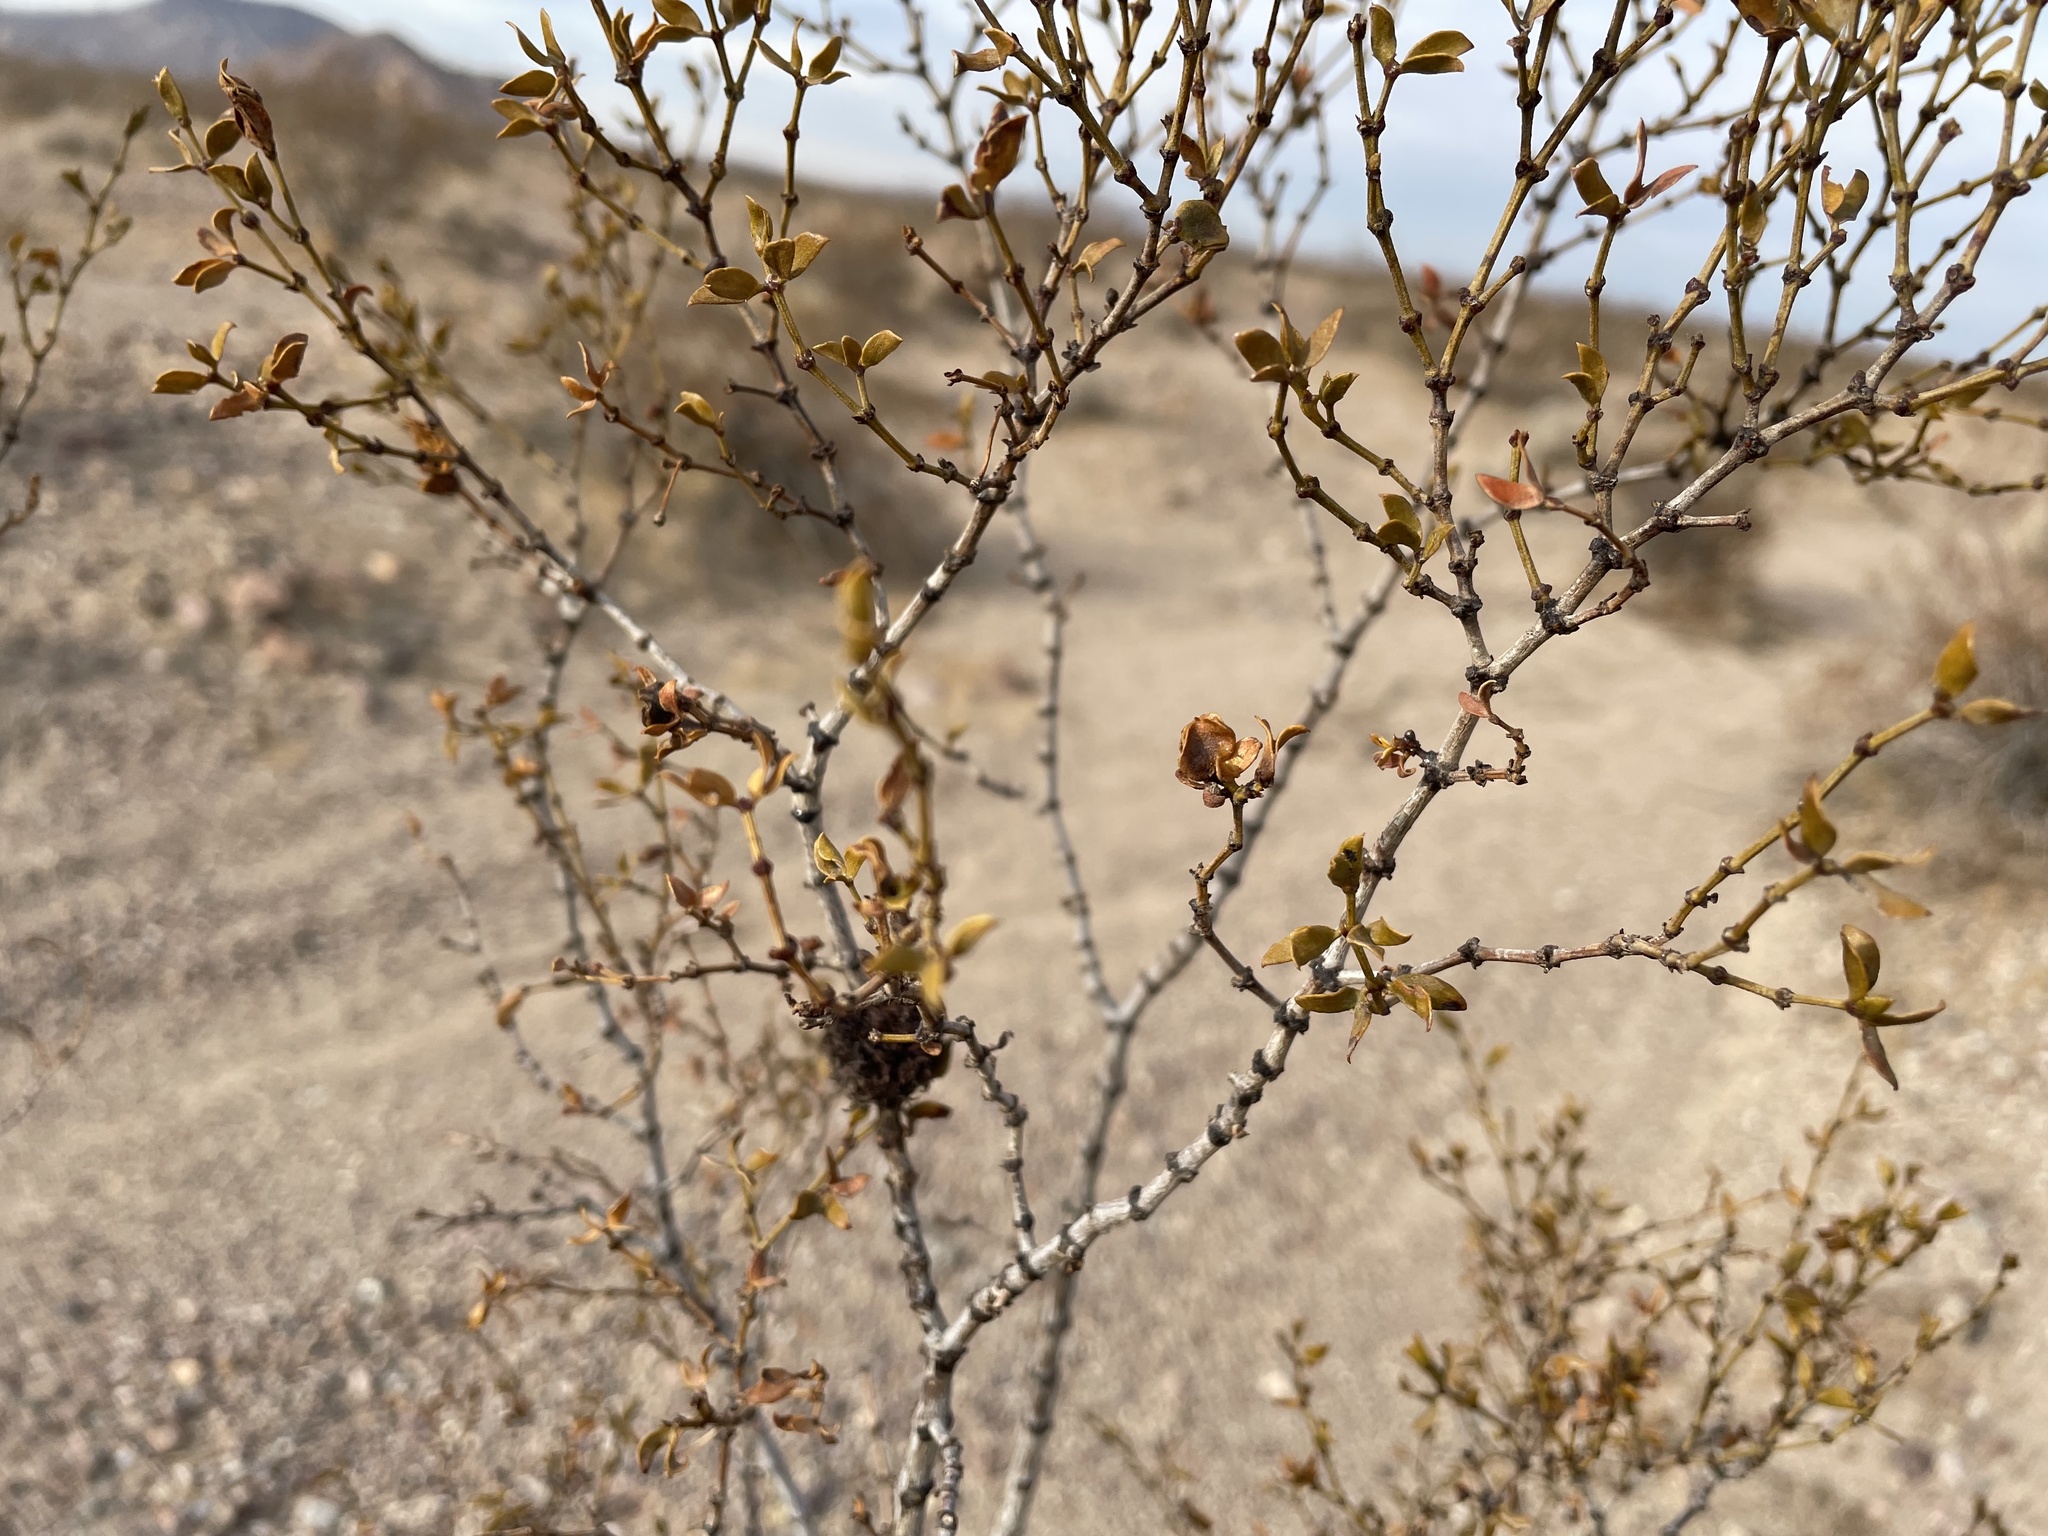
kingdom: Plantae
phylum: Tracheophyta
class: Magnoliopsida
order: Zygophyllales
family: Zygophyllaceae
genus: Larrea
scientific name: Larrea tridentata
